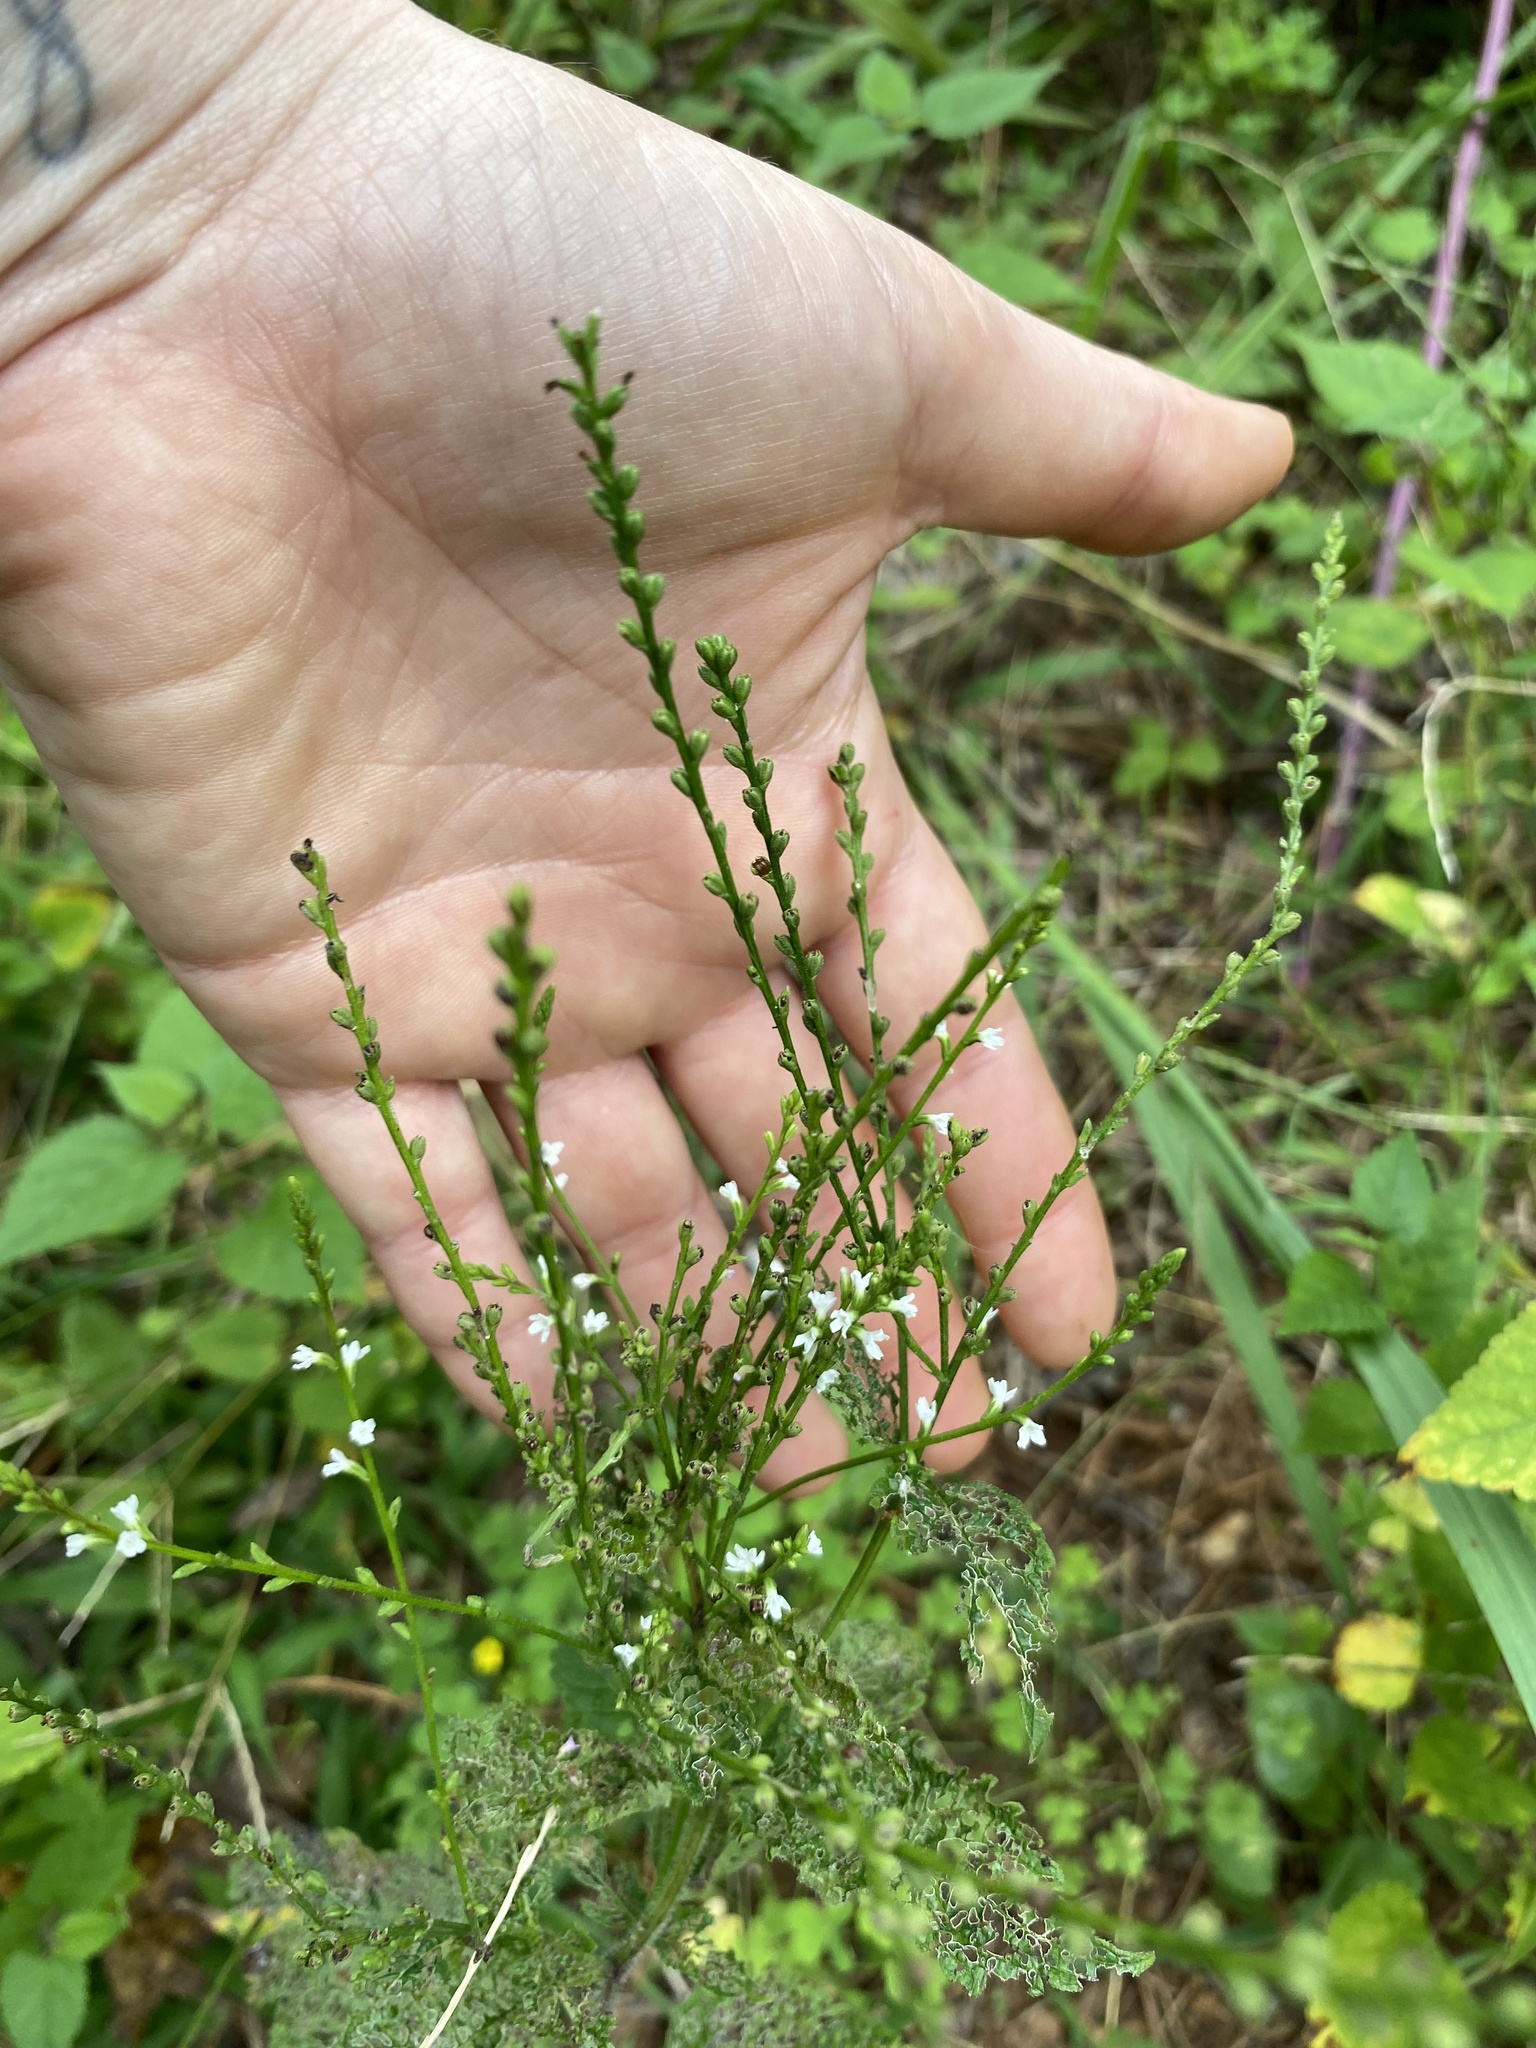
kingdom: Plantae
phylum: Tracheophyta
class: Magnoliopsida
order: Lamiales
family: Verbenaceae
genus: Verbena
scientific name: Verbena urticifolia
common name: Nettle-leaved vervain
